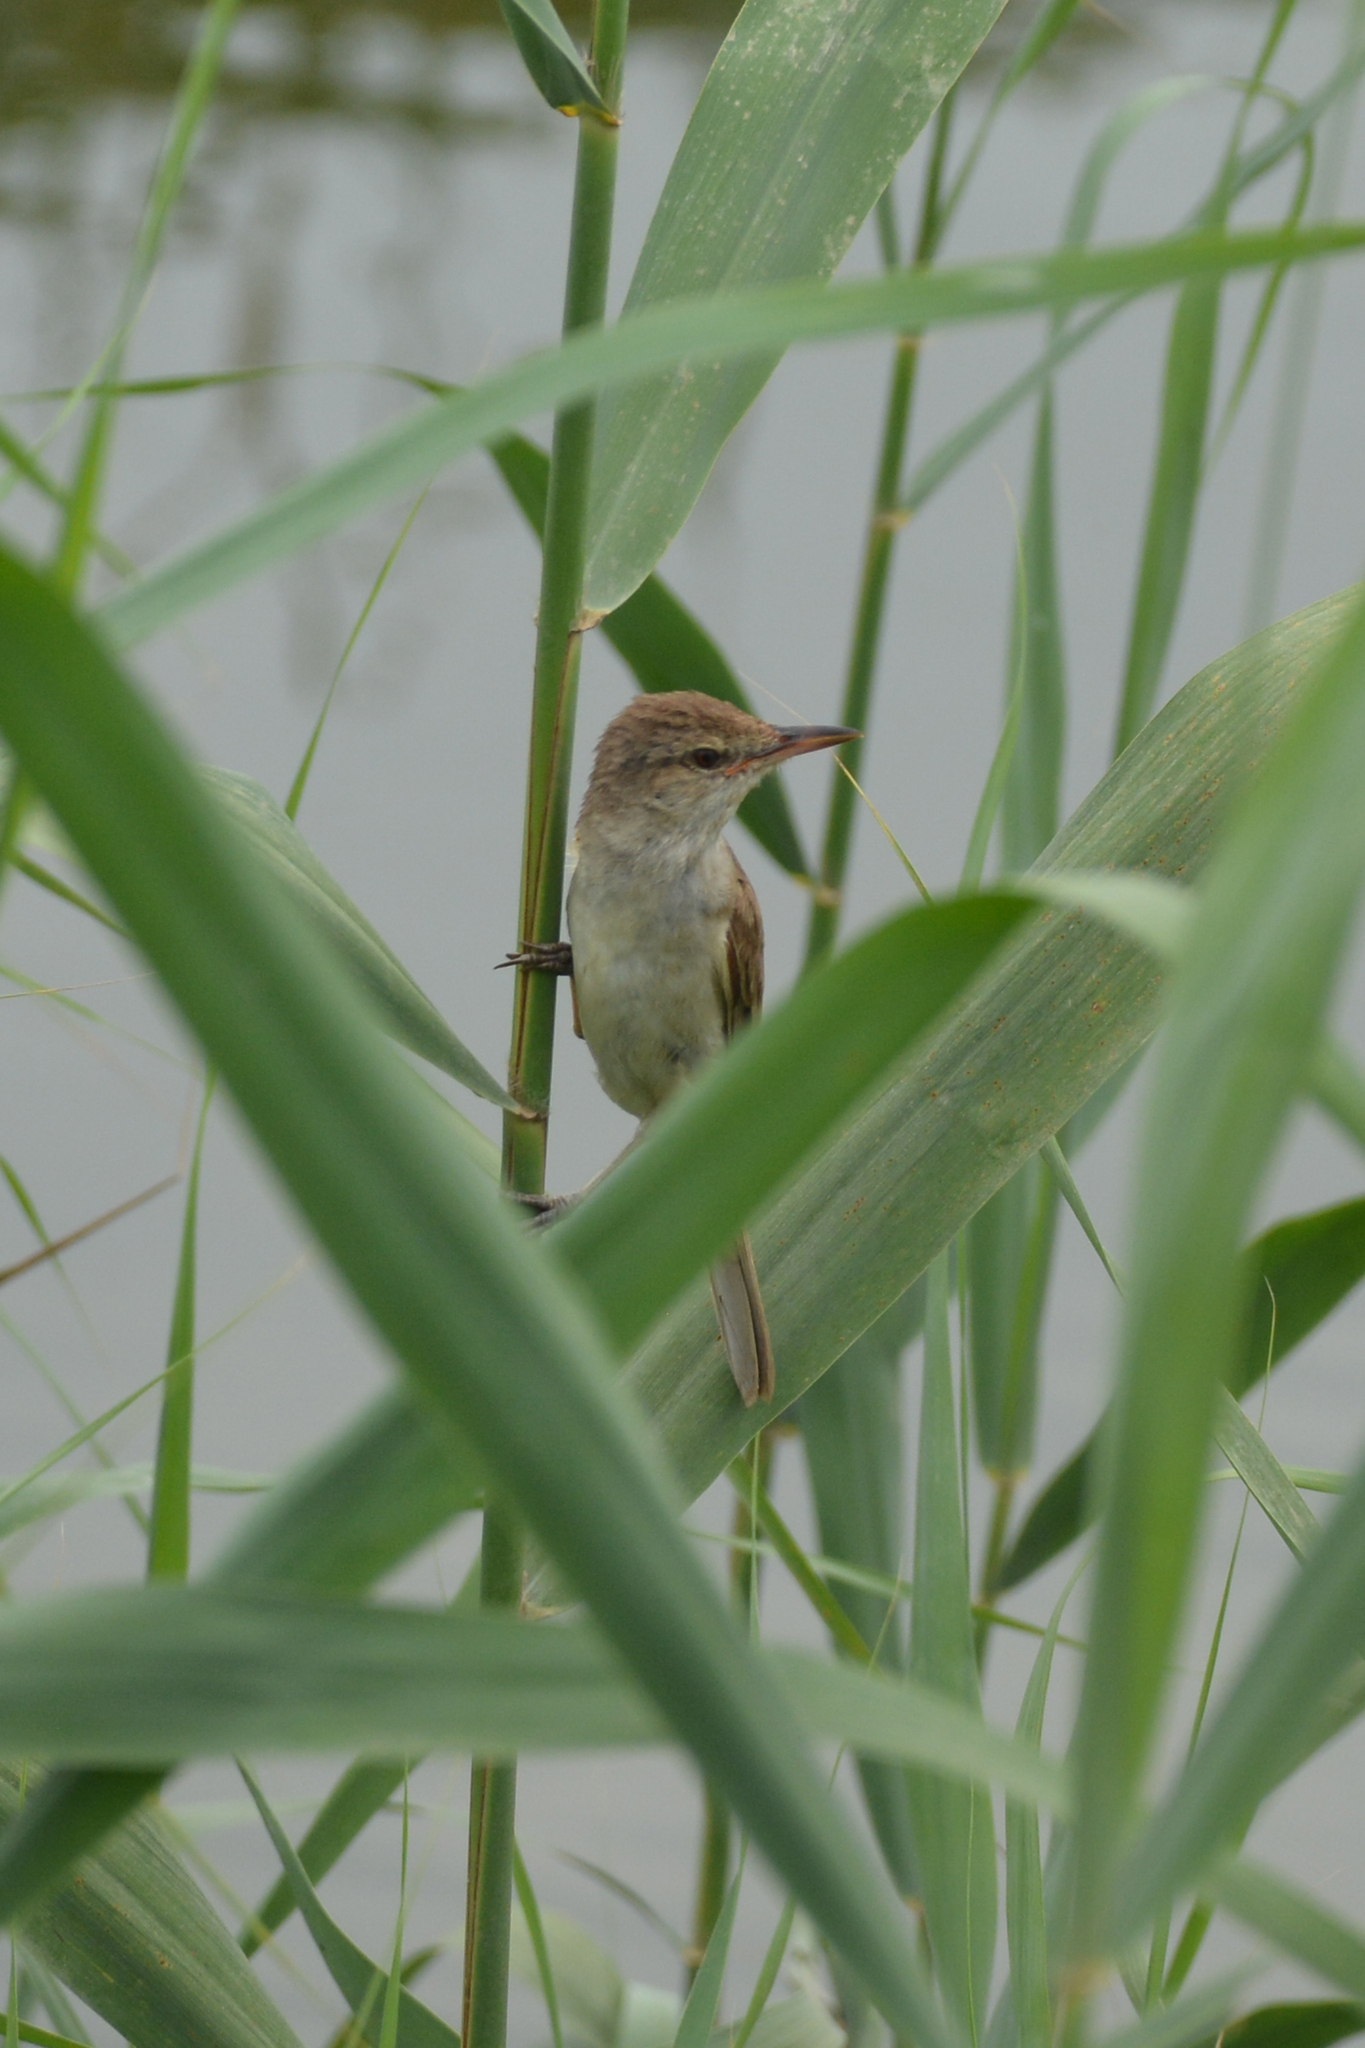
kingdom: Animalia
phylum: Chordata
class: Aves
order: Passeriformes
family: Acrocephalidae
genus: Acrocephalus
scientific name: Acrocephalus arundinaceus
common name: Great reed warbler
